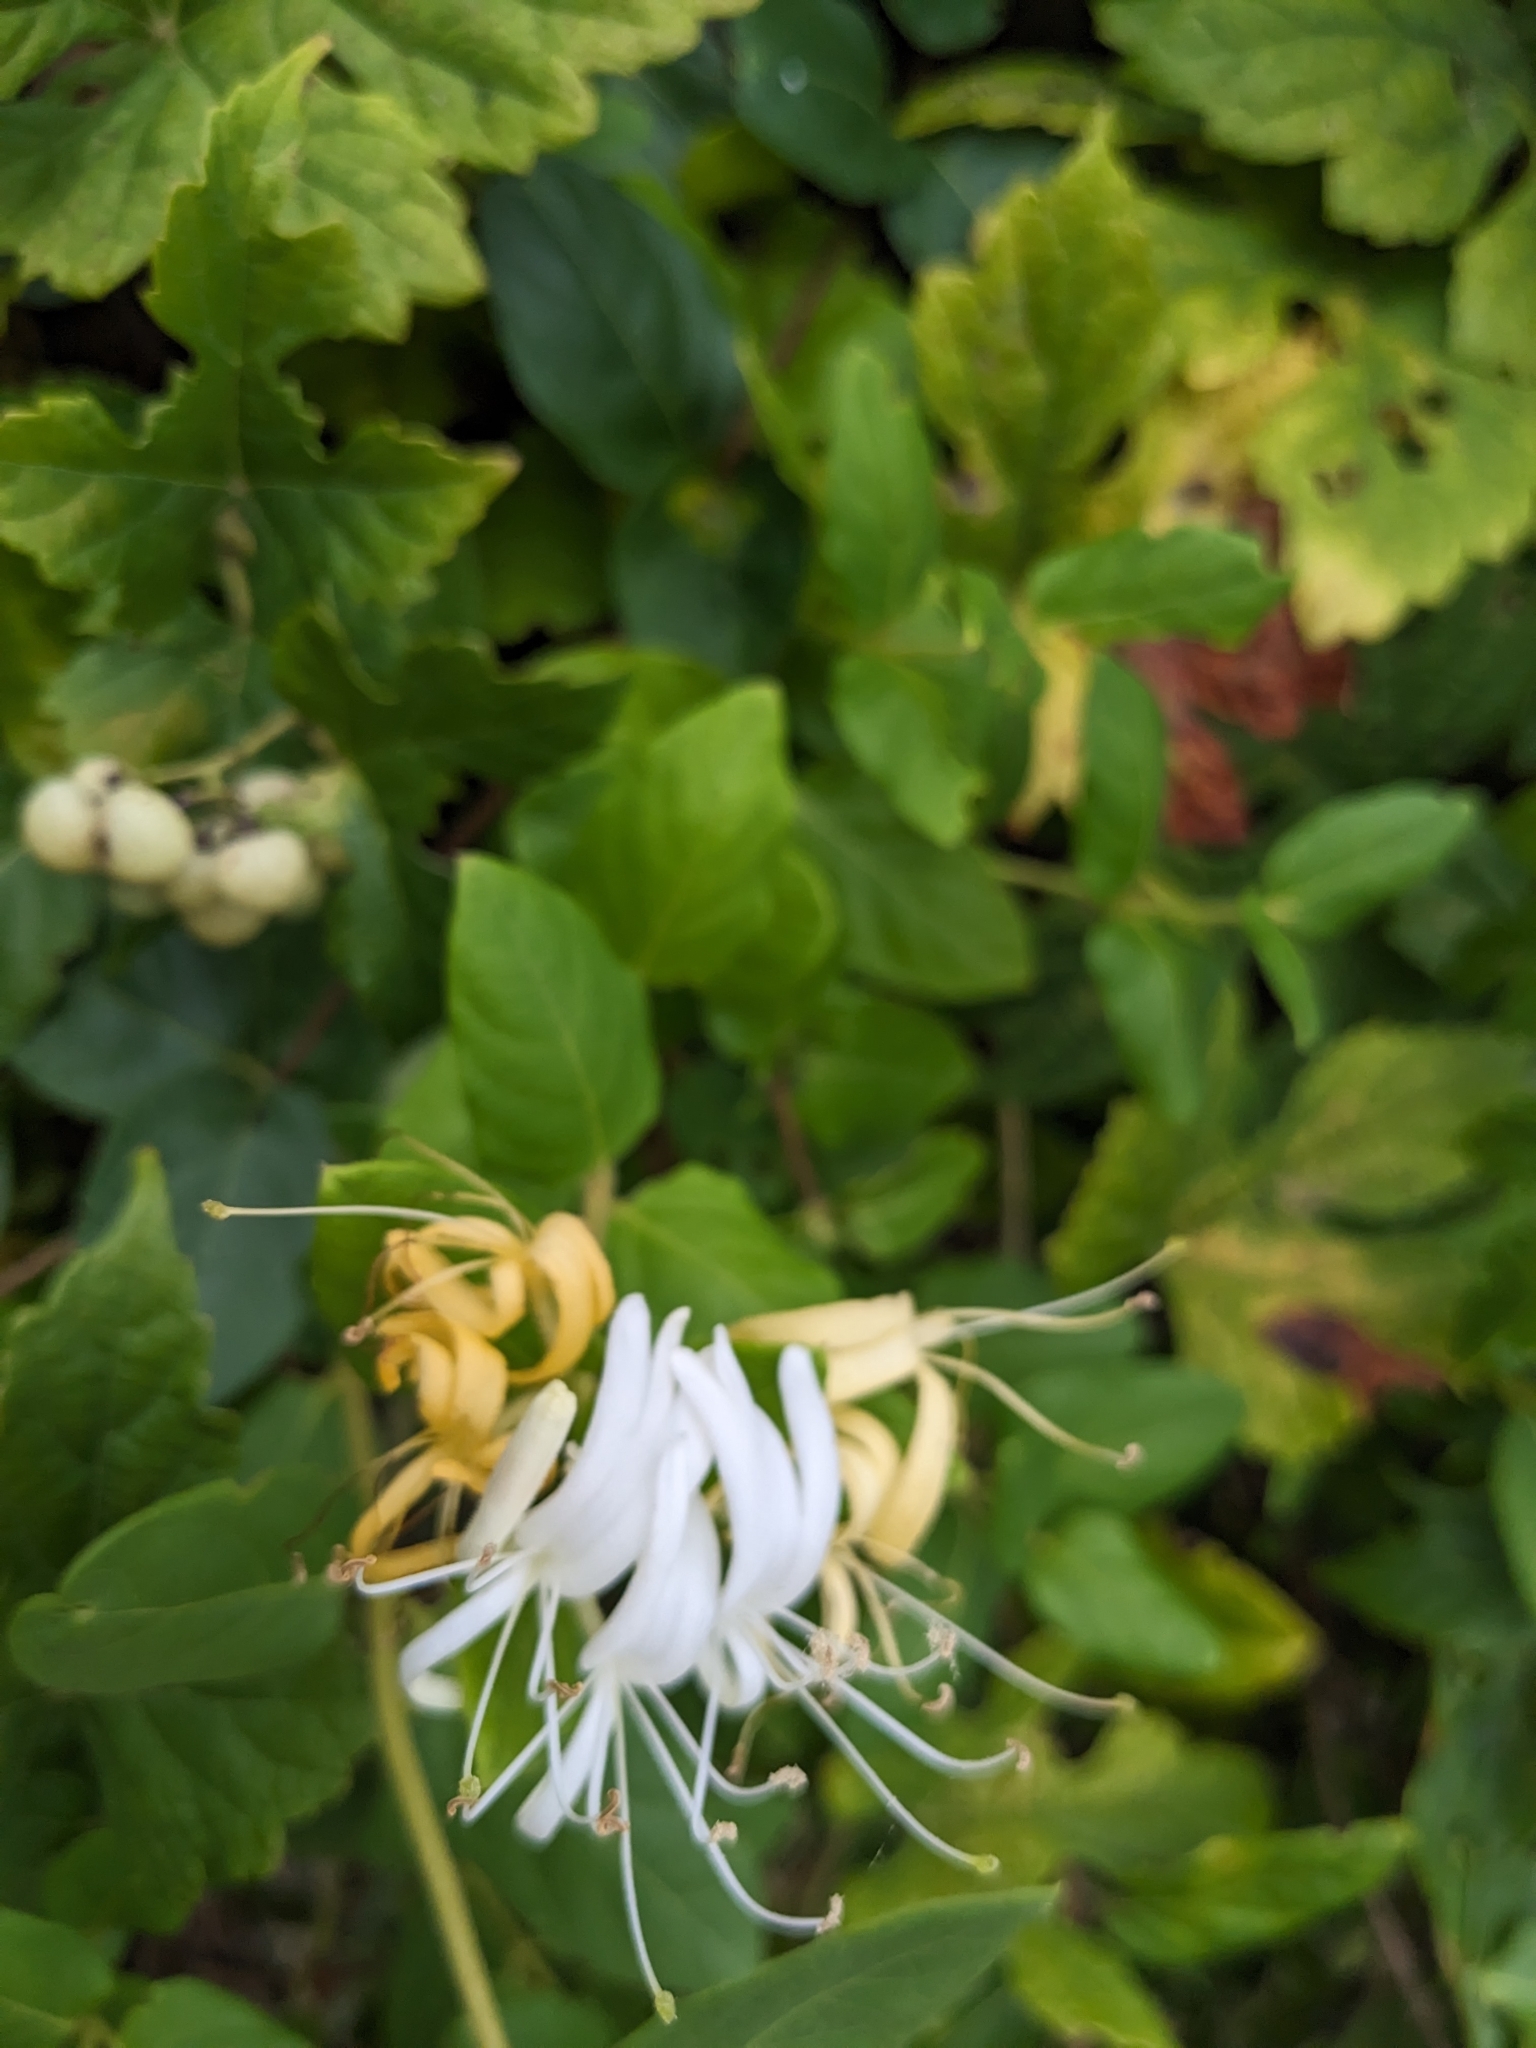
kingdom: Plantae
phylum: Tracheophyta
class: Magnoliopsida
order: Dipsacales
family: Caprifoliaceae
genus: Lonicera
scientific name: Lonicera japonica
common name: Japanese honeysuckle
